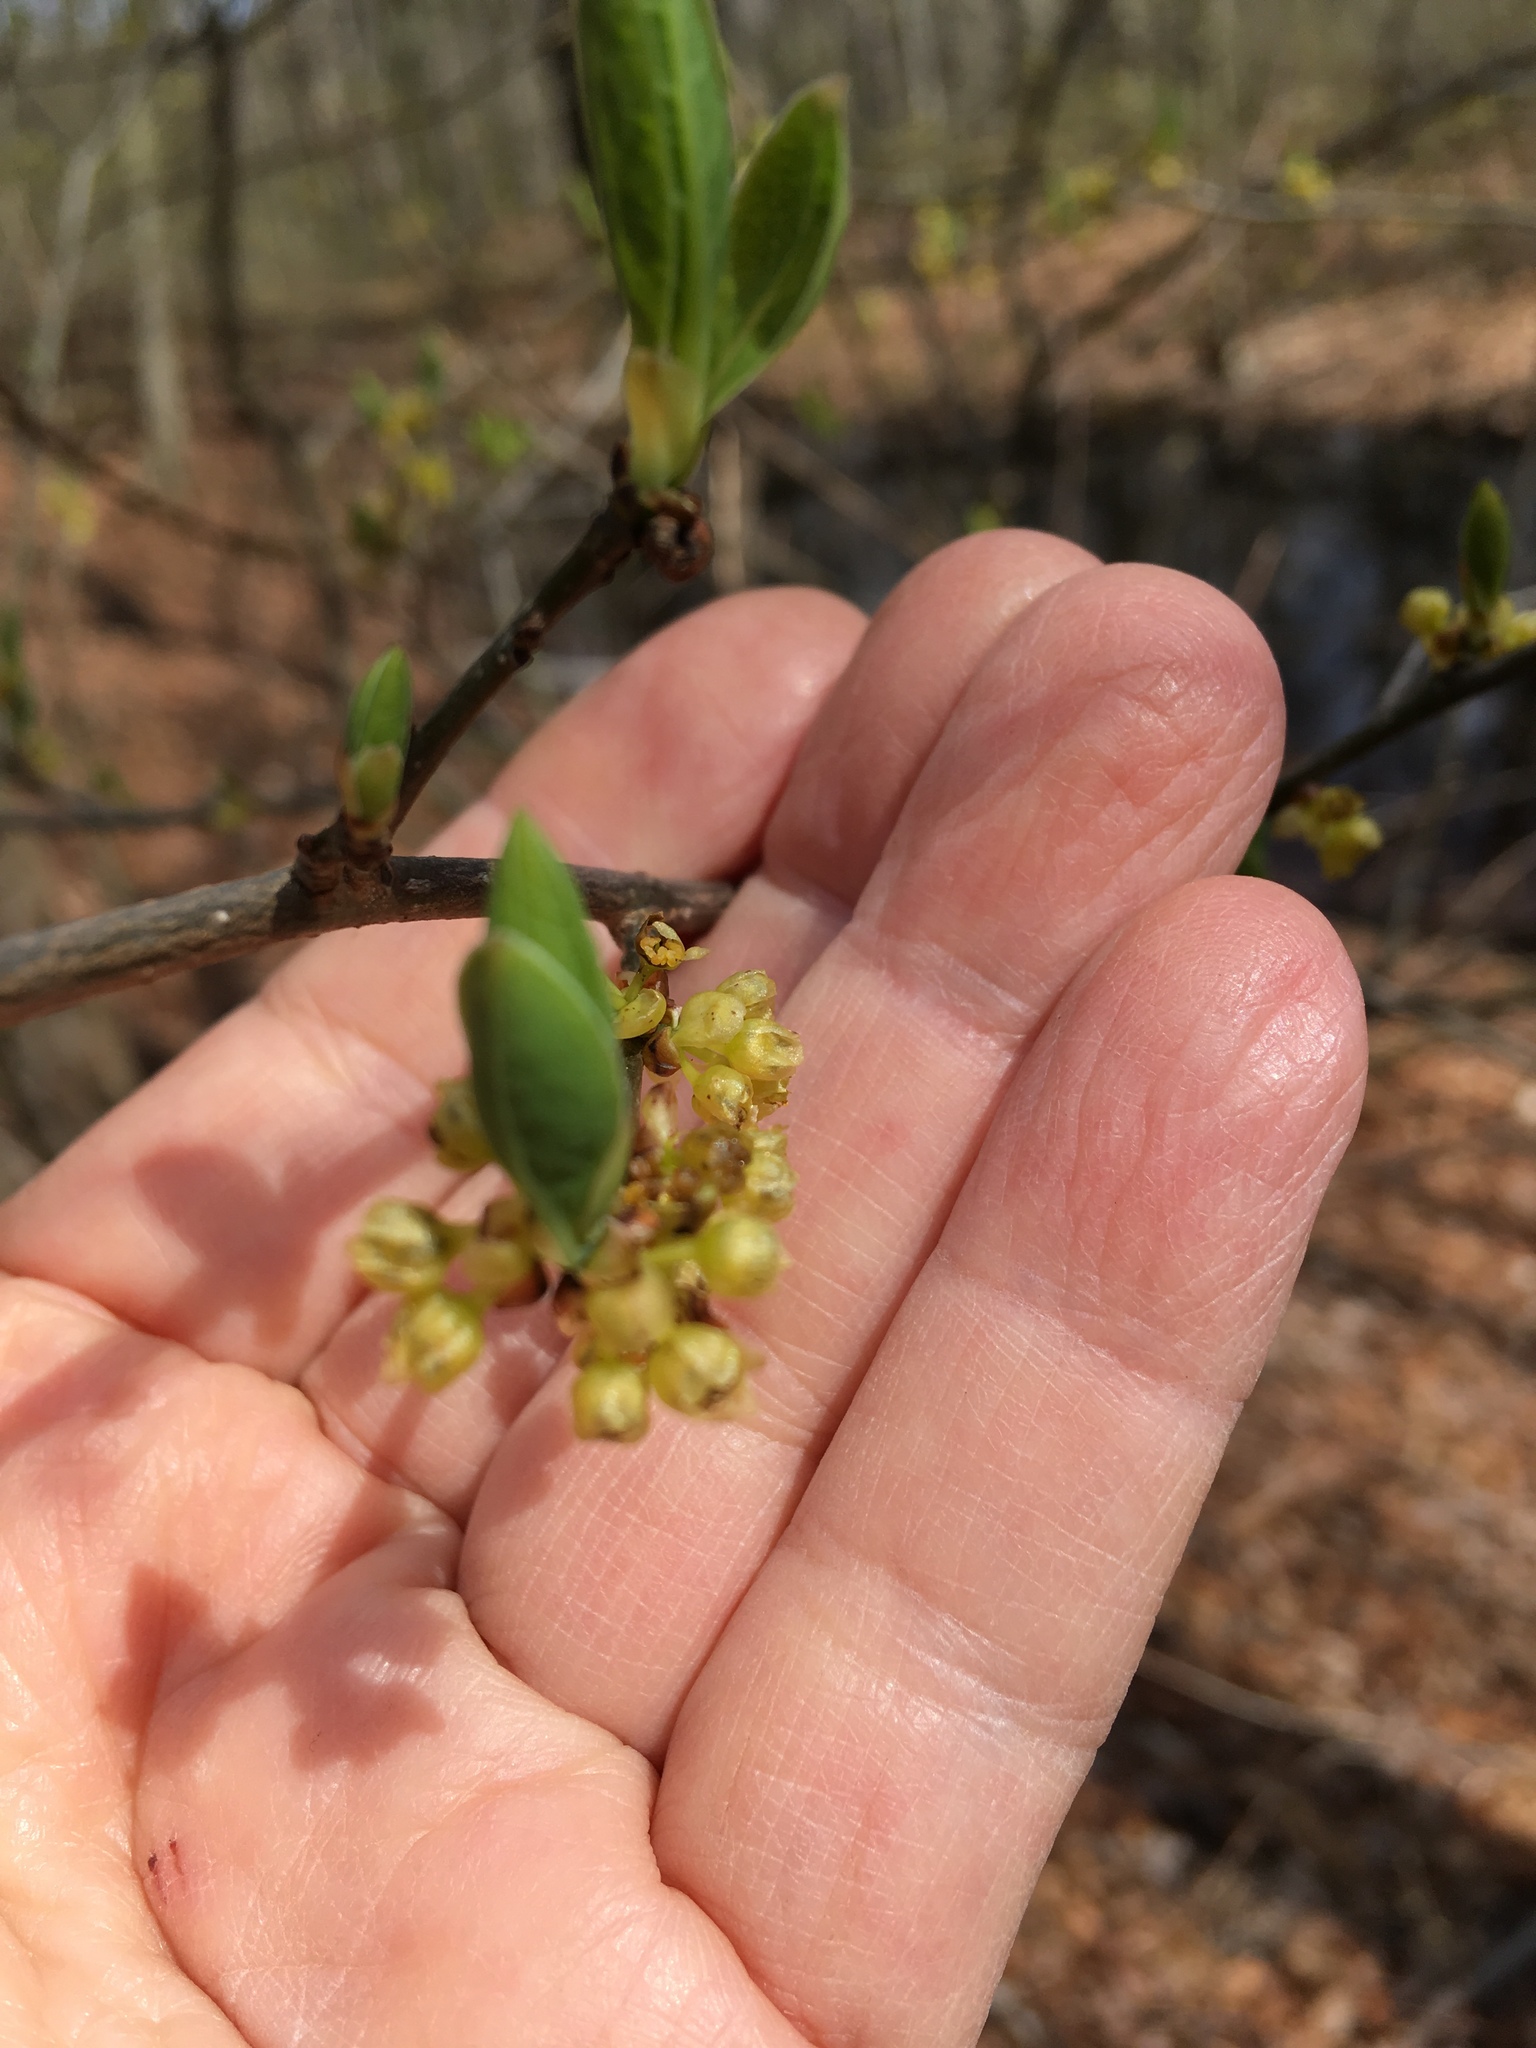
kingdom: Plantae
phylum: Tracheophyta
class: Magnoliopsida
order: Laurales
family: Lauraceae
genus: Lindera
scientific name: Lindera benzoin
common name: Spicebush
